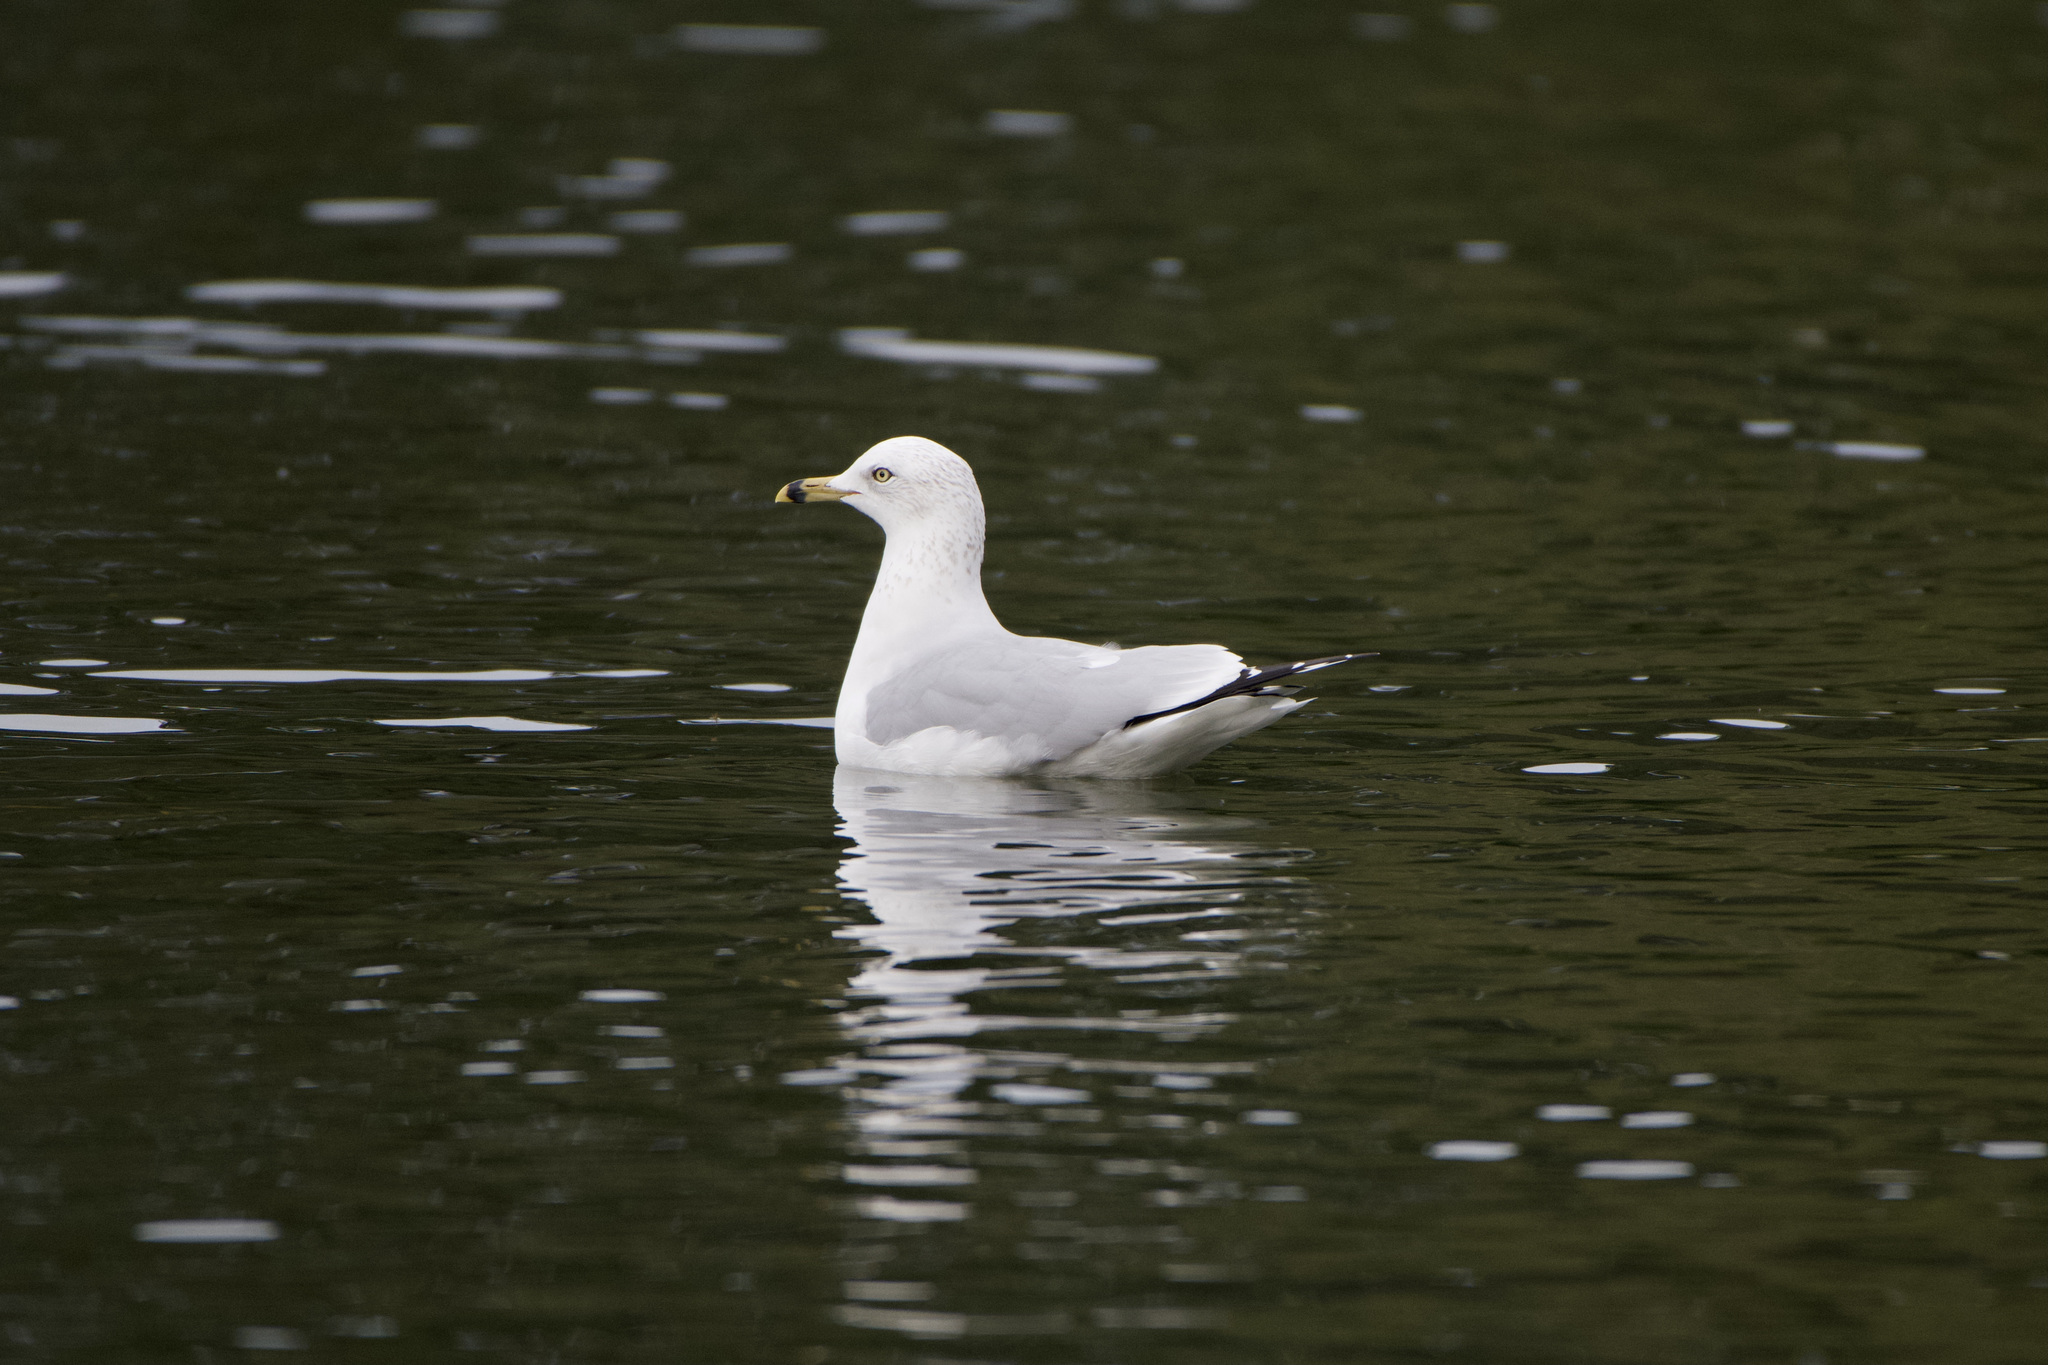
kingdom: Animalia
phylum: Chordata
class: Aves
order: Charadriiformes
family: Laridae
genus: Larus
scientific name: Larus delawarensis
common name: Ring-billed gull
